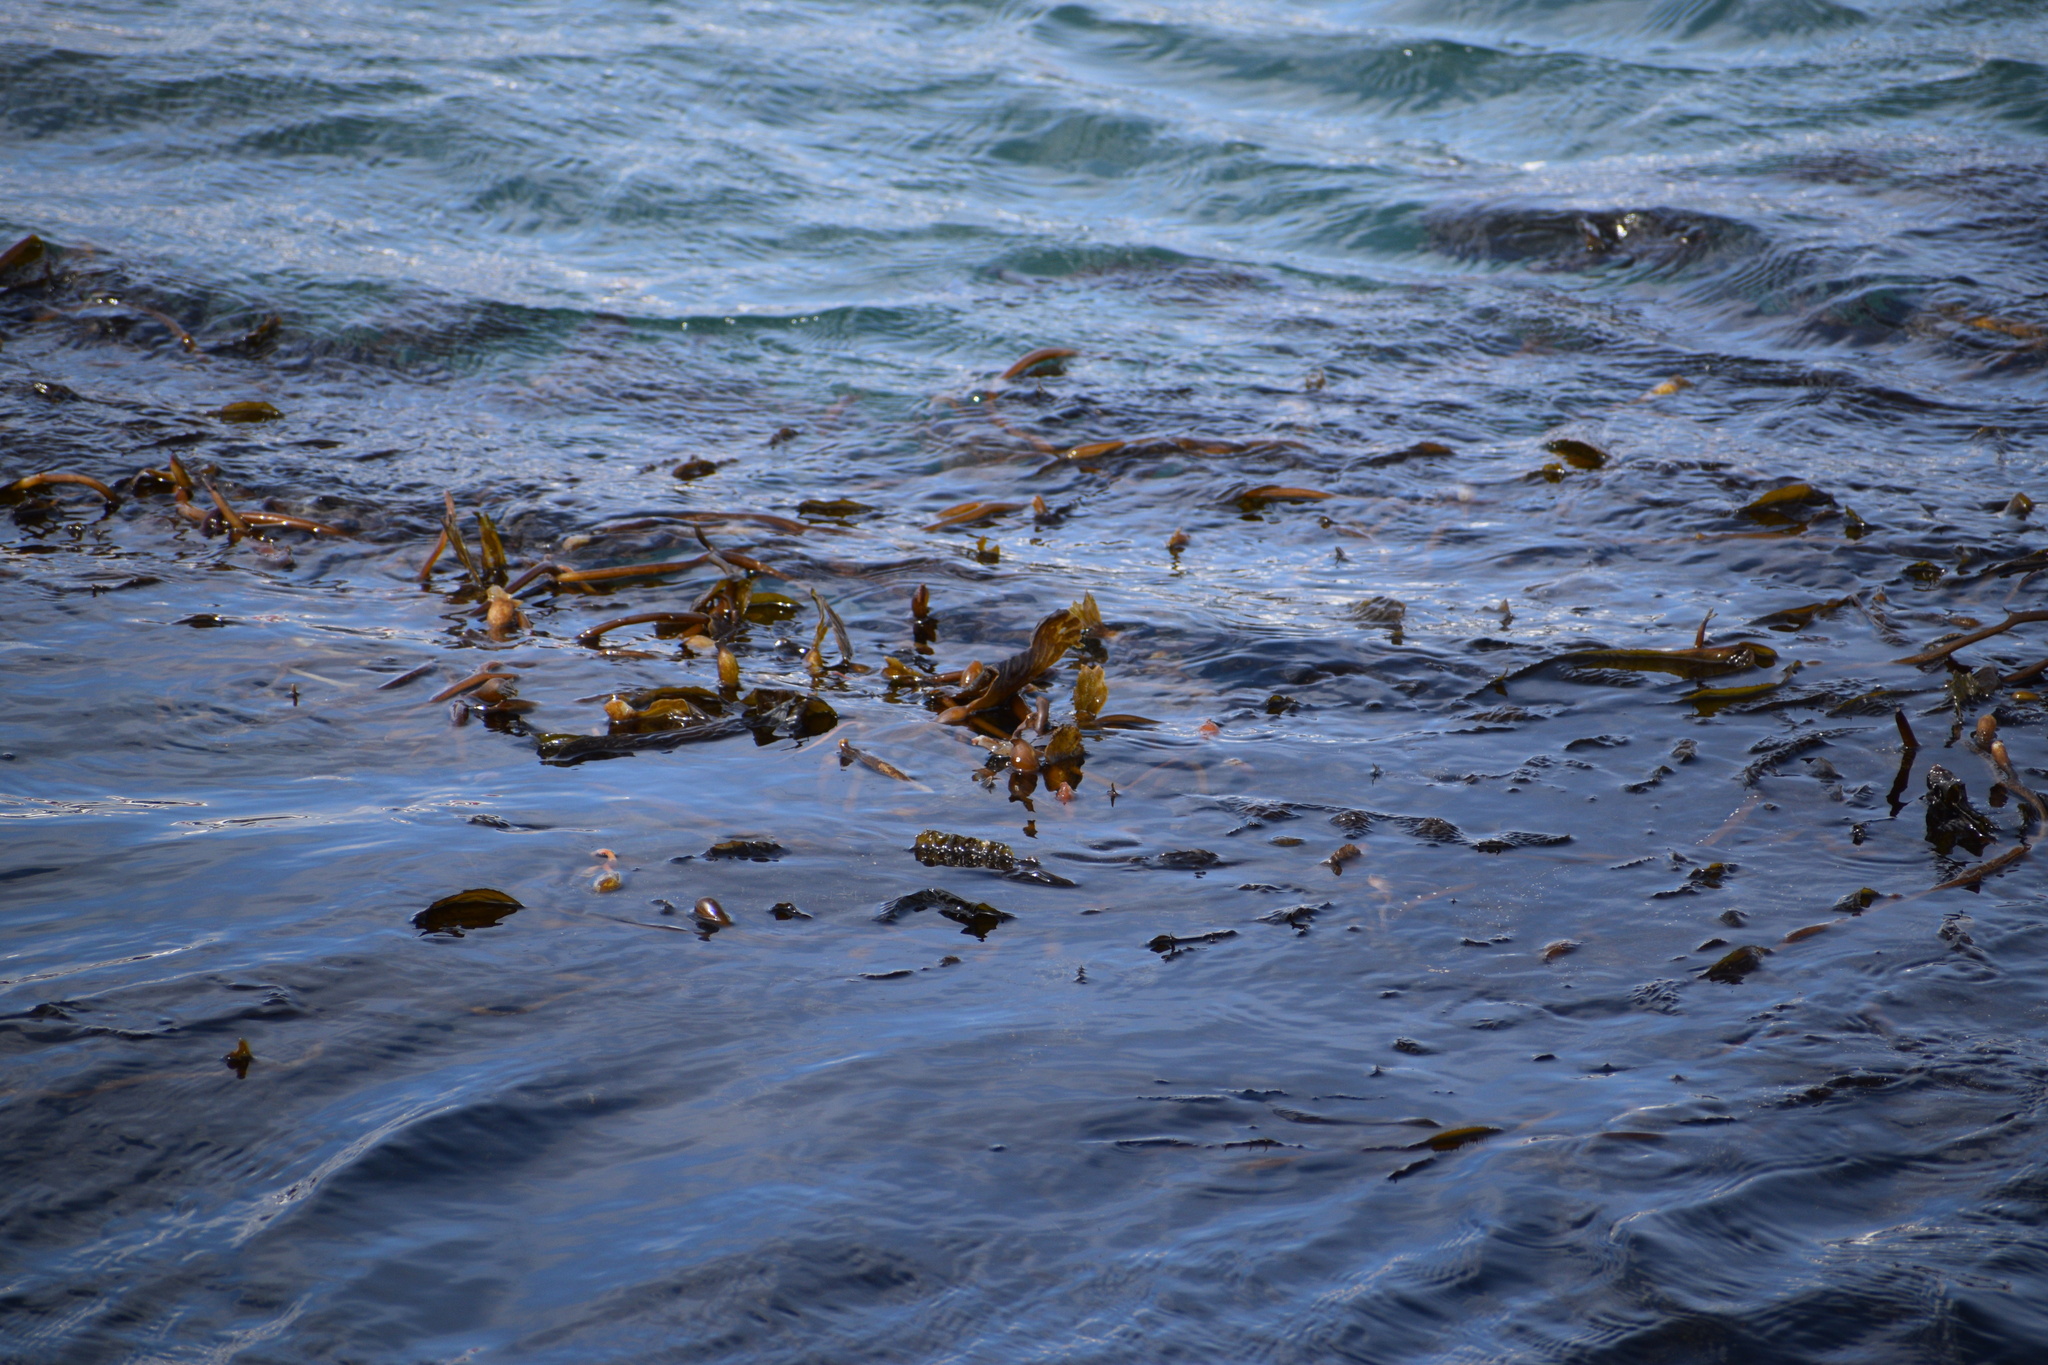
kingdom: Chromista
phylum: Ochrophyta
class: Phaeophyceae
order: Laminariales
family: Laminariaceae
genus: Macrocystis
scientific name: Macrocystis pyrifera
